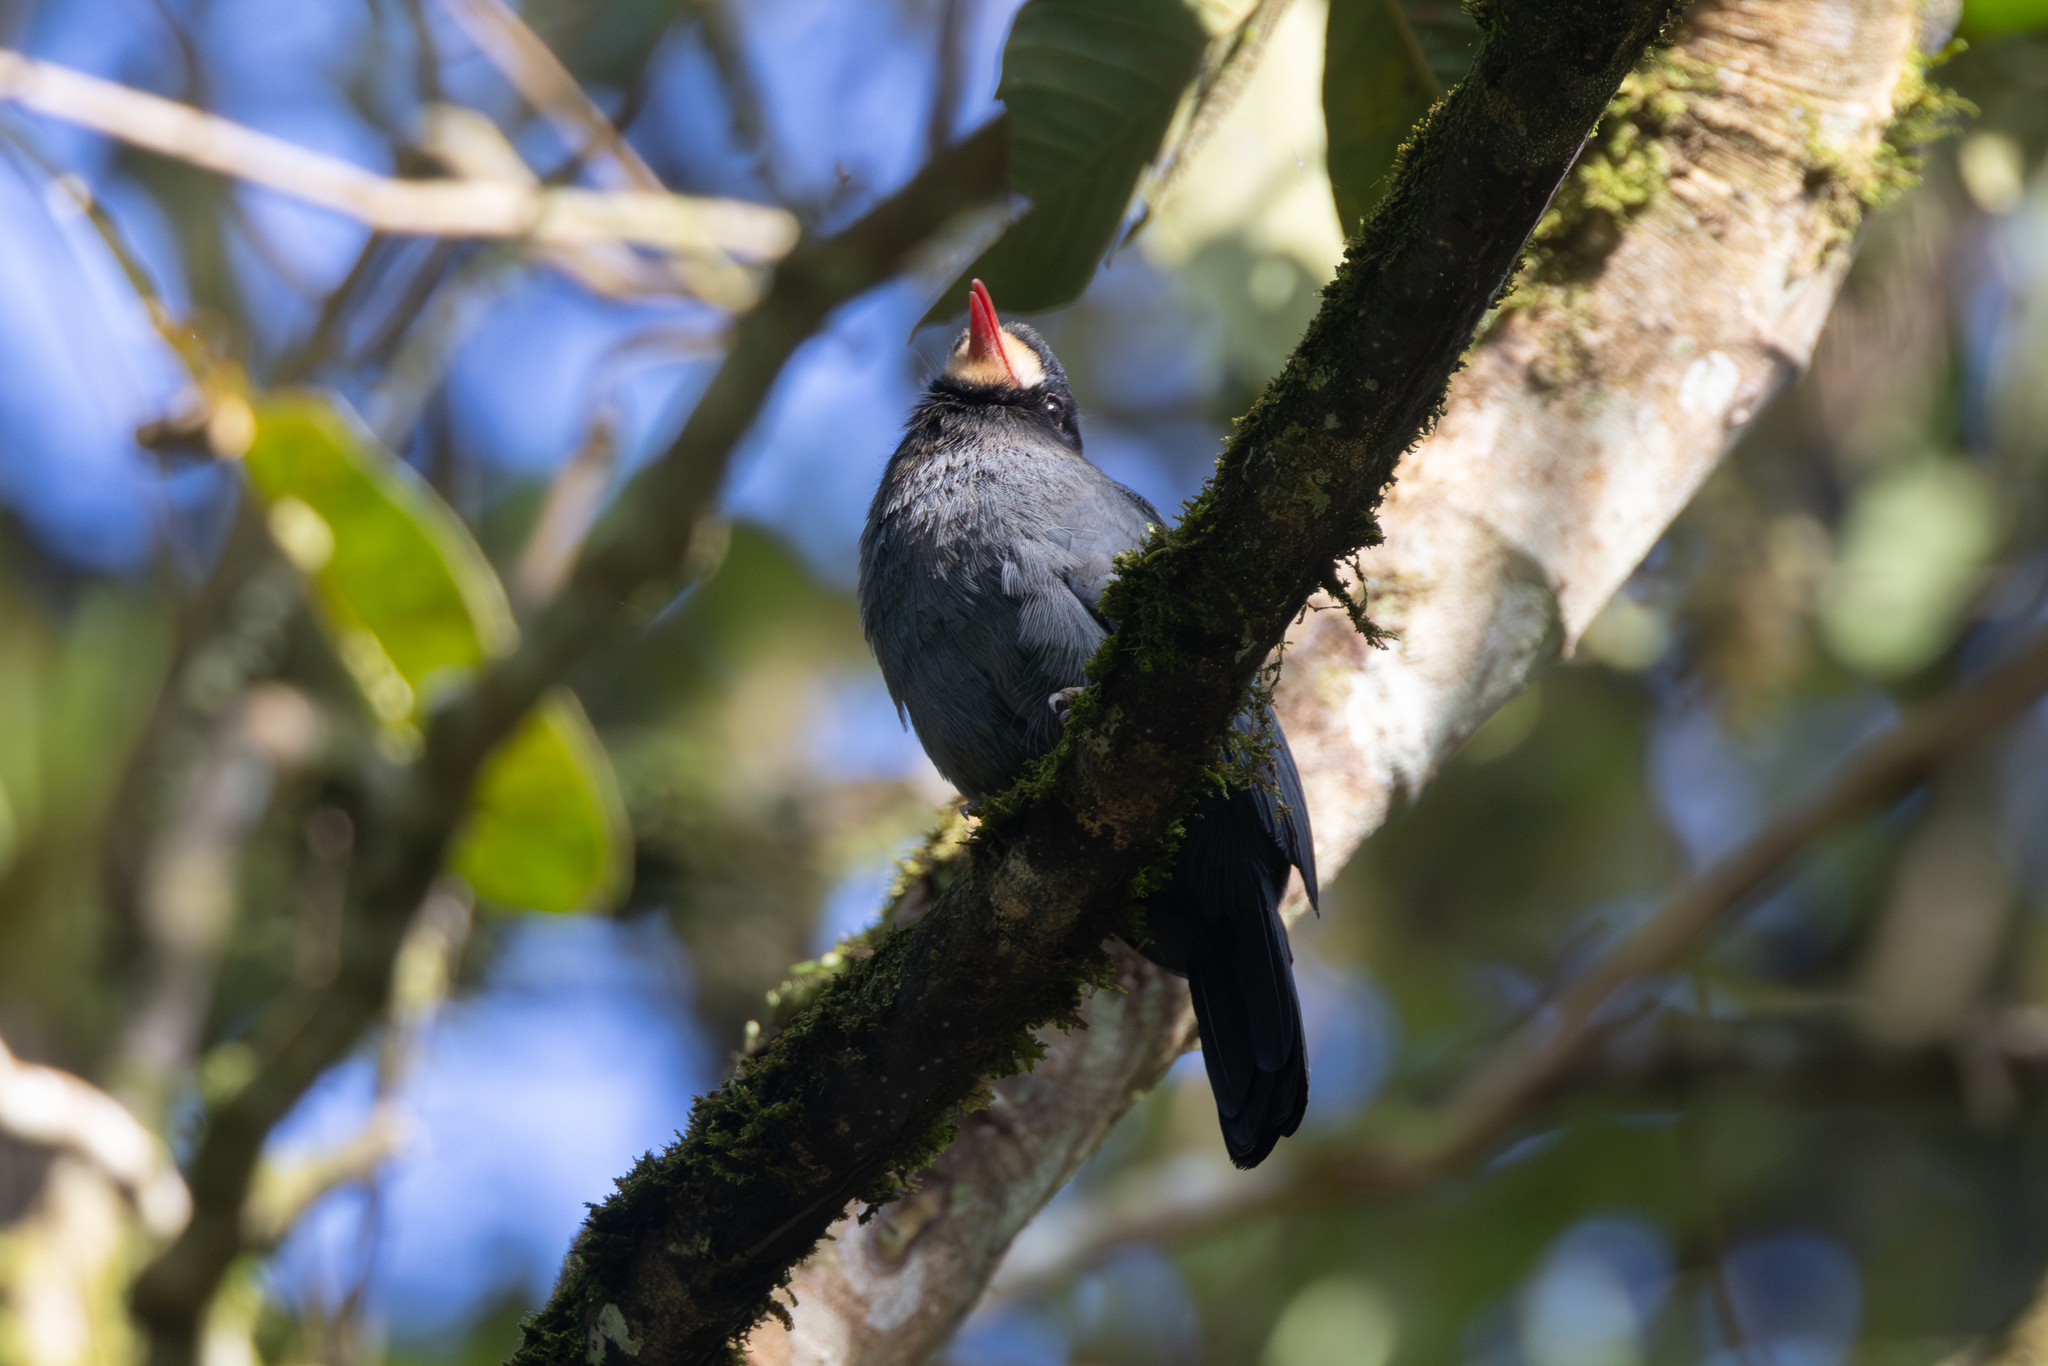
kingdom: Animalia
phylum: Chordata
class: Aves
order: Piciformes
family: Bucconidae
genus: Monasa
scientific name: Monasa morphoeus
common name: White-fronted nunbird
